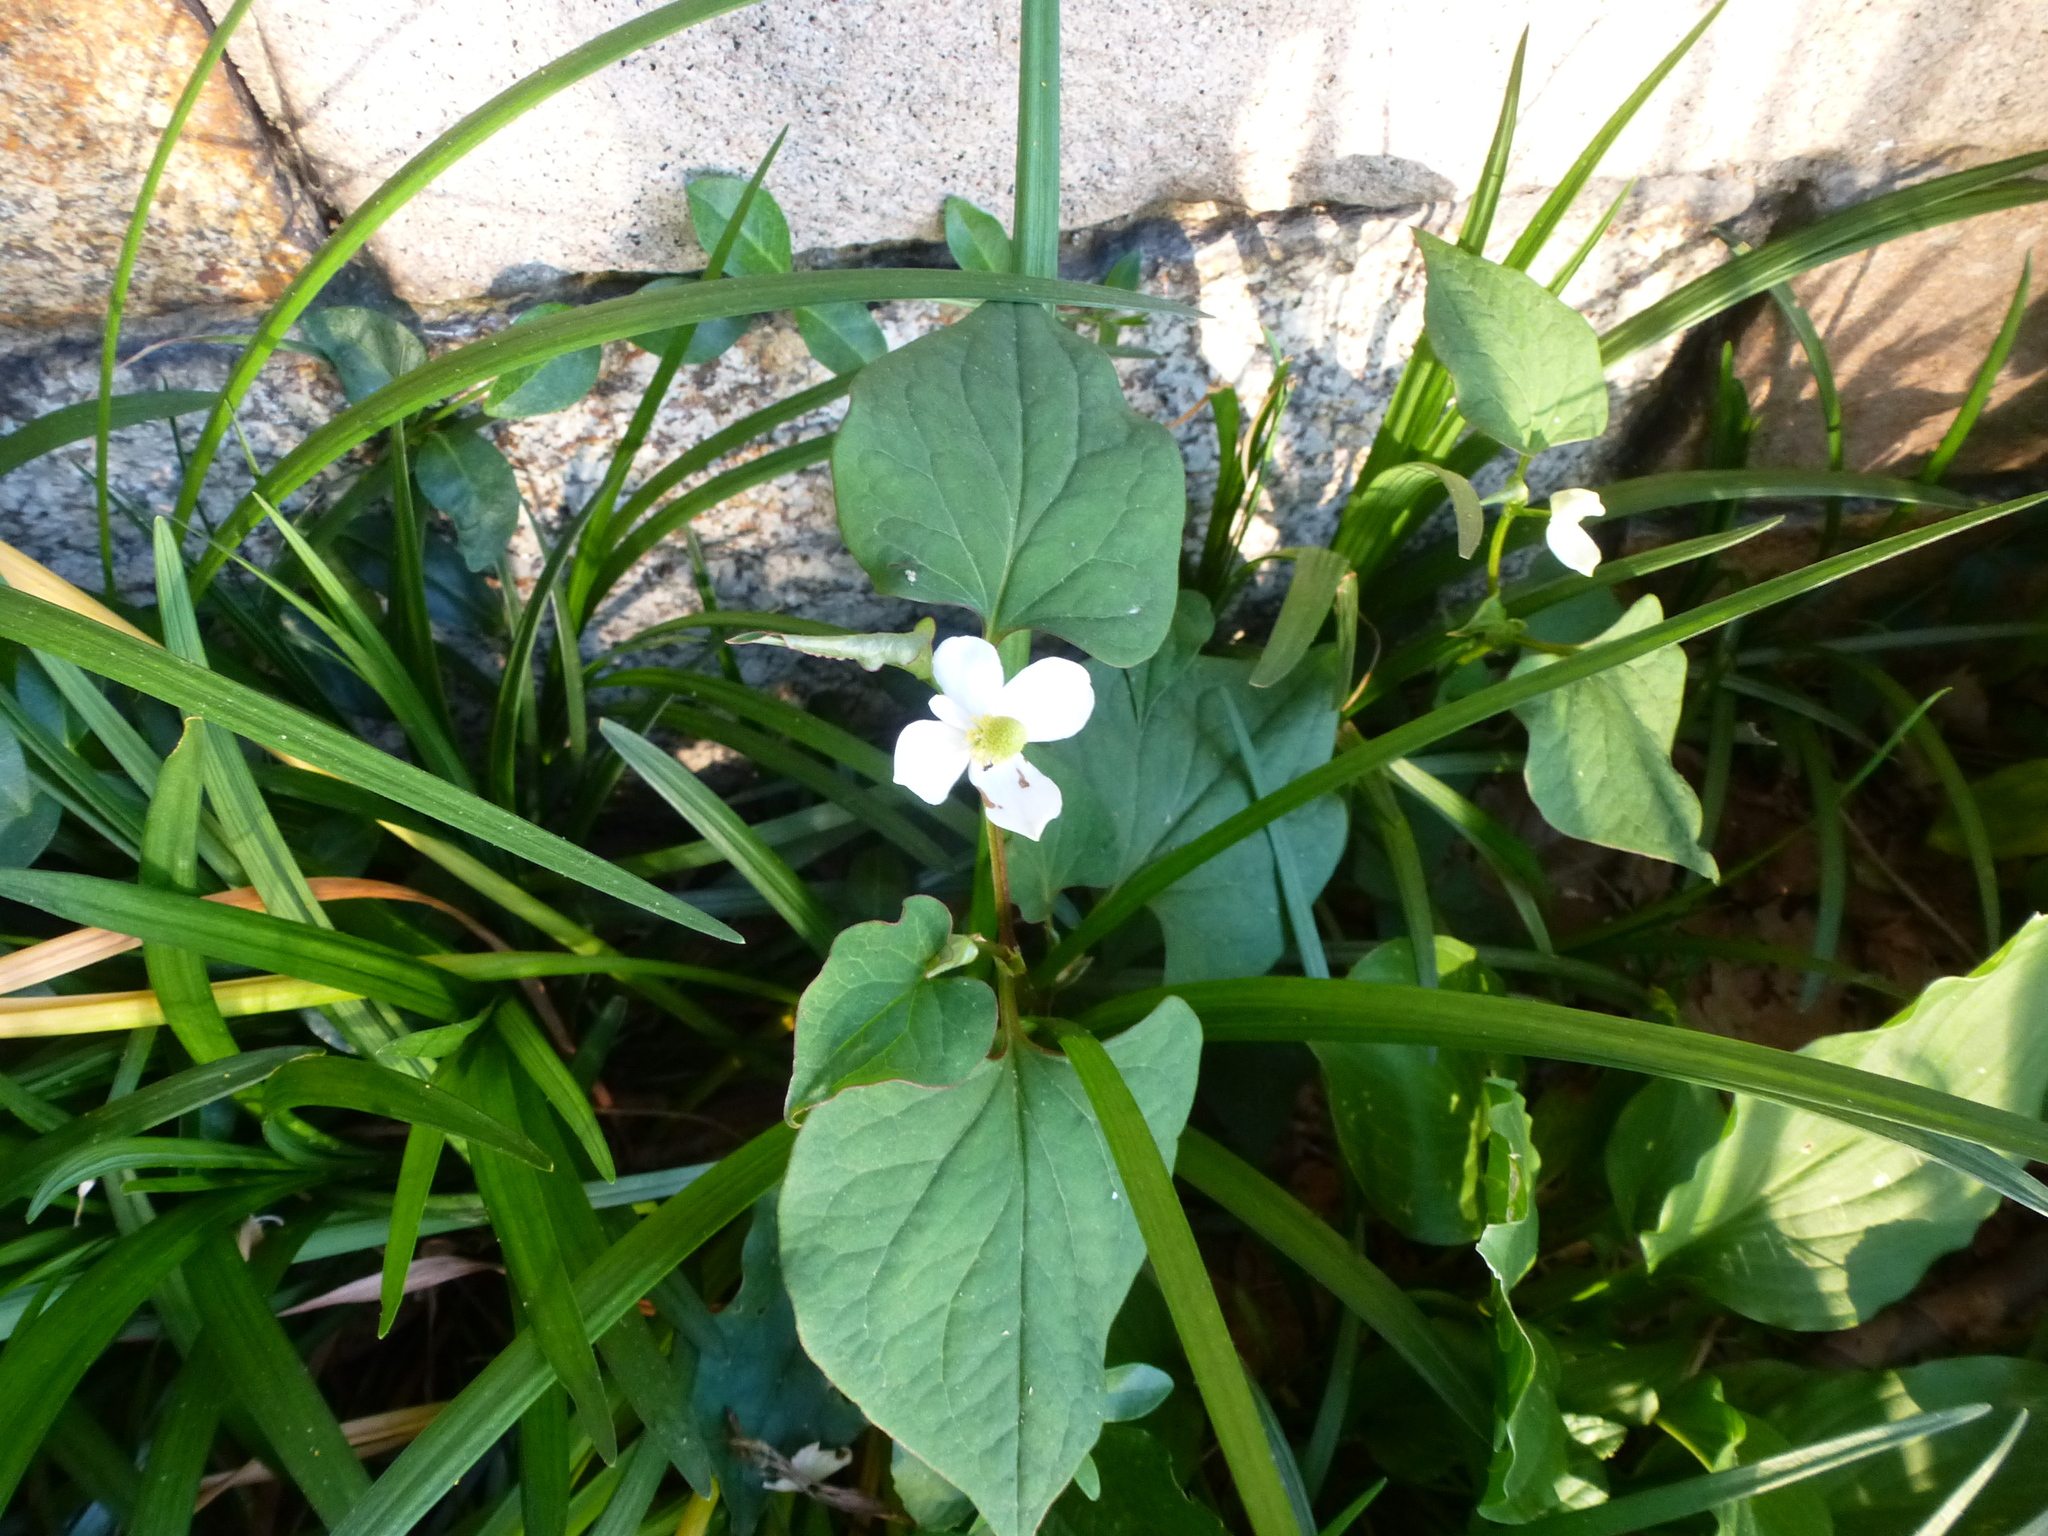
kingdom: Plantae
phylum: Tracheophyta
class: Magnoliopsida
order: Piperales
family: Saururaceae
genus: Houttuynia
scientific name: Houttuynia cordata
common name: Chameleon
